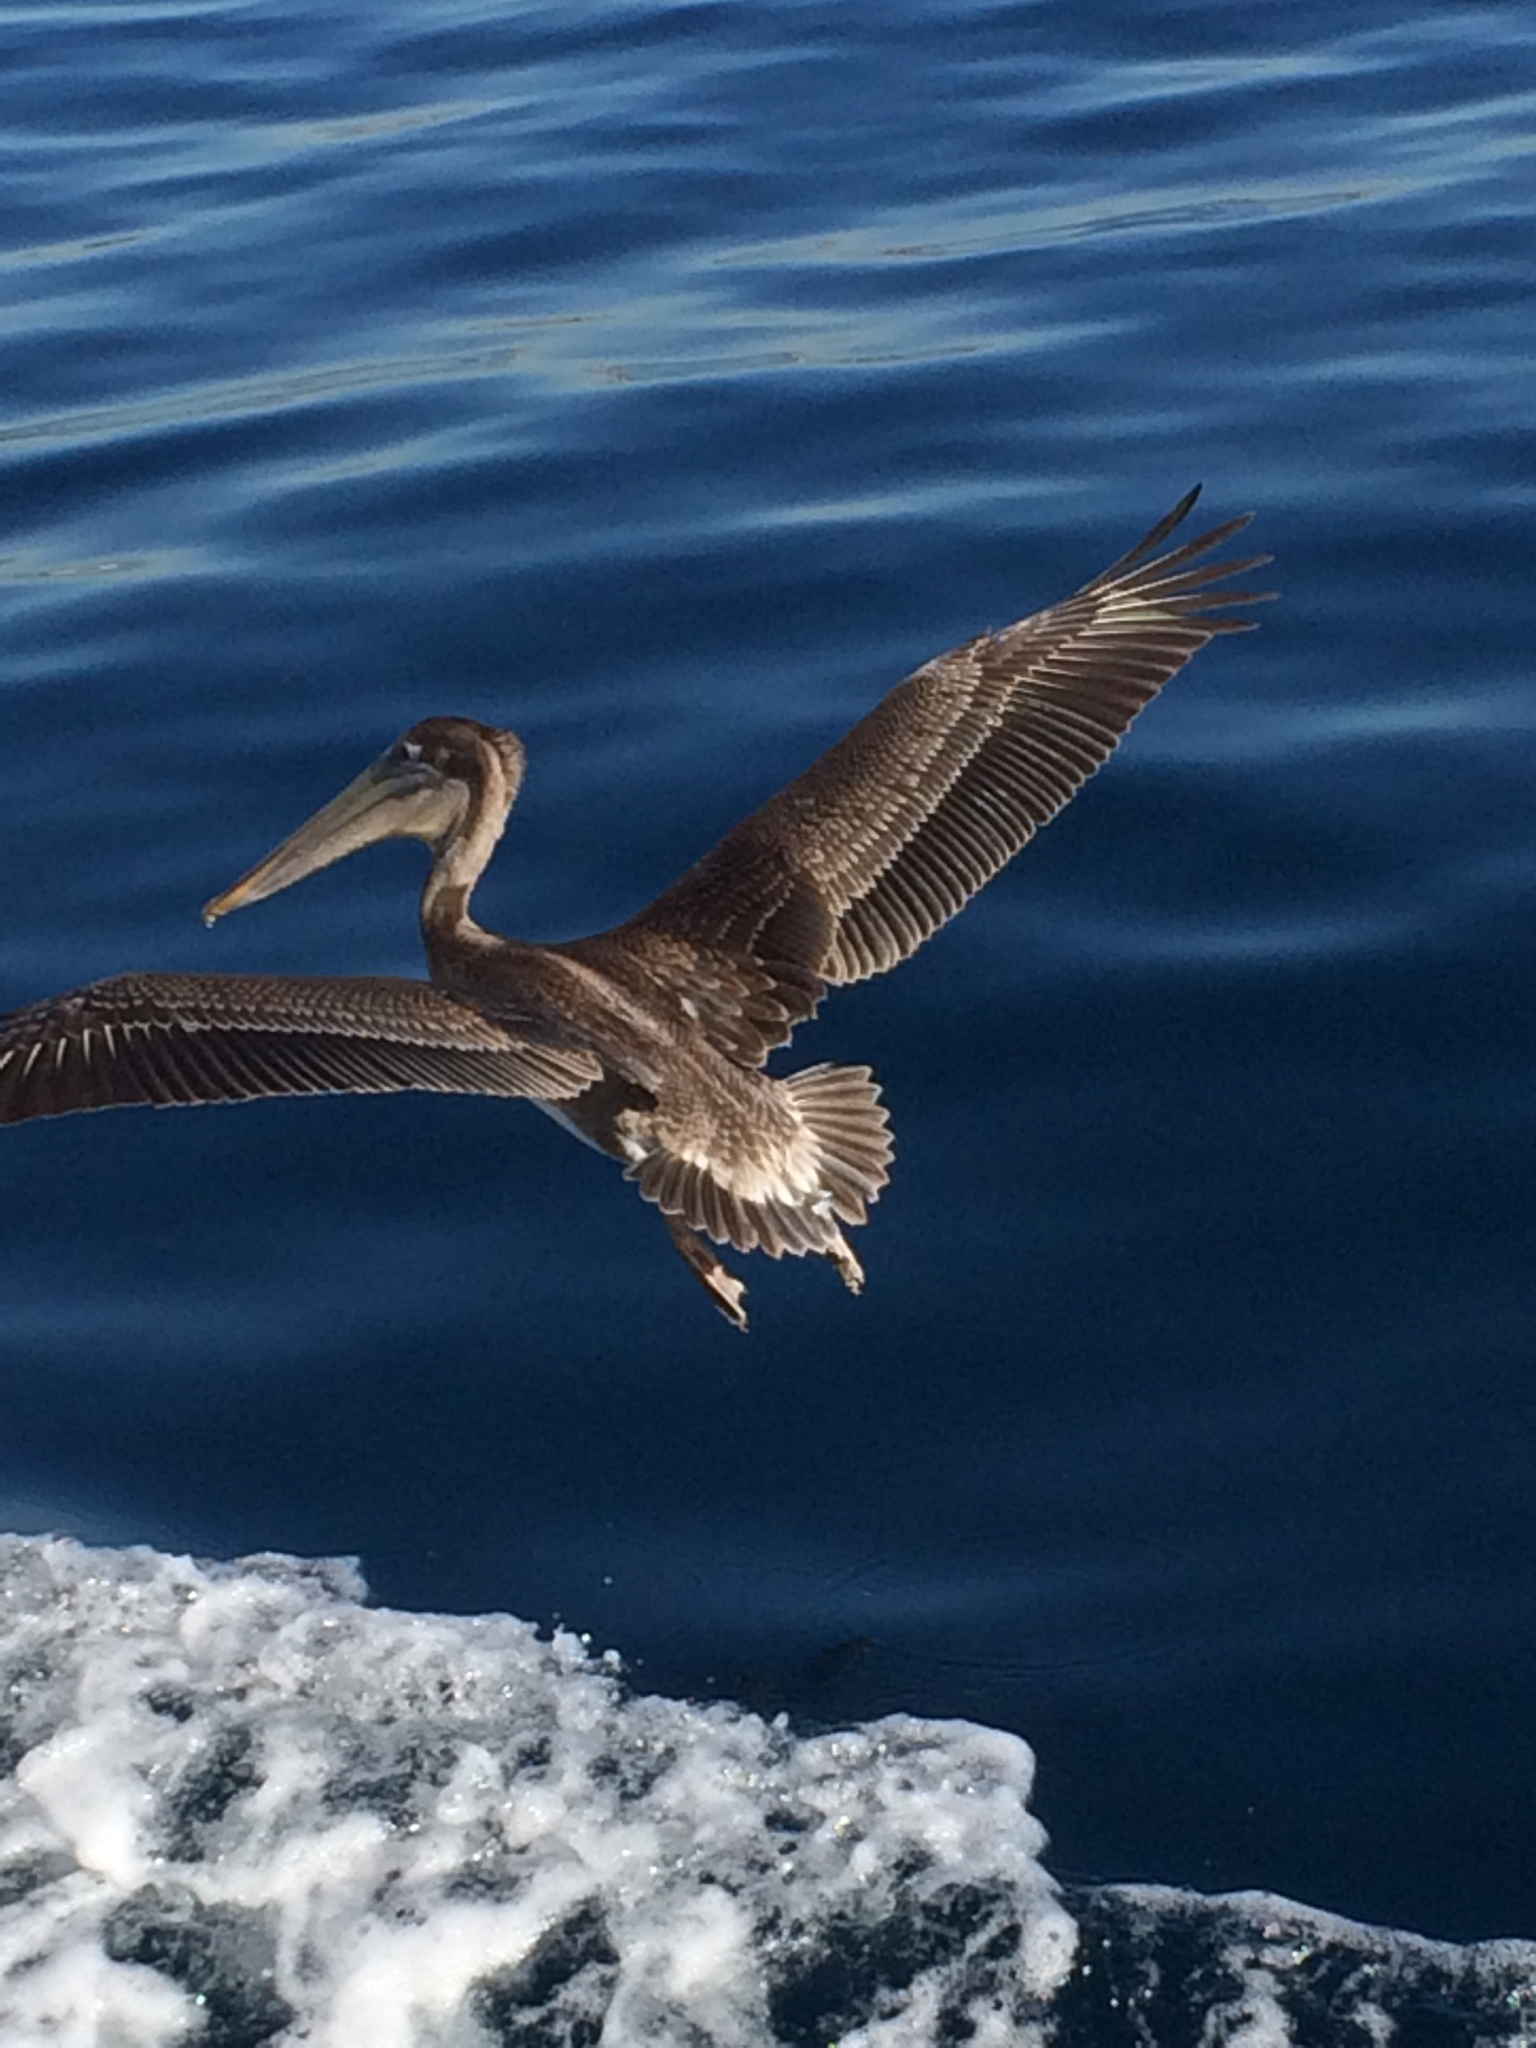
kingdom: Animalia
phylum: Chordata
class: Aves
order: Pelecaniformes
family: Pelecanidae
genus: Pelecanus
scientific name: Pelecanus occidentalis
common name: Brown pelican
